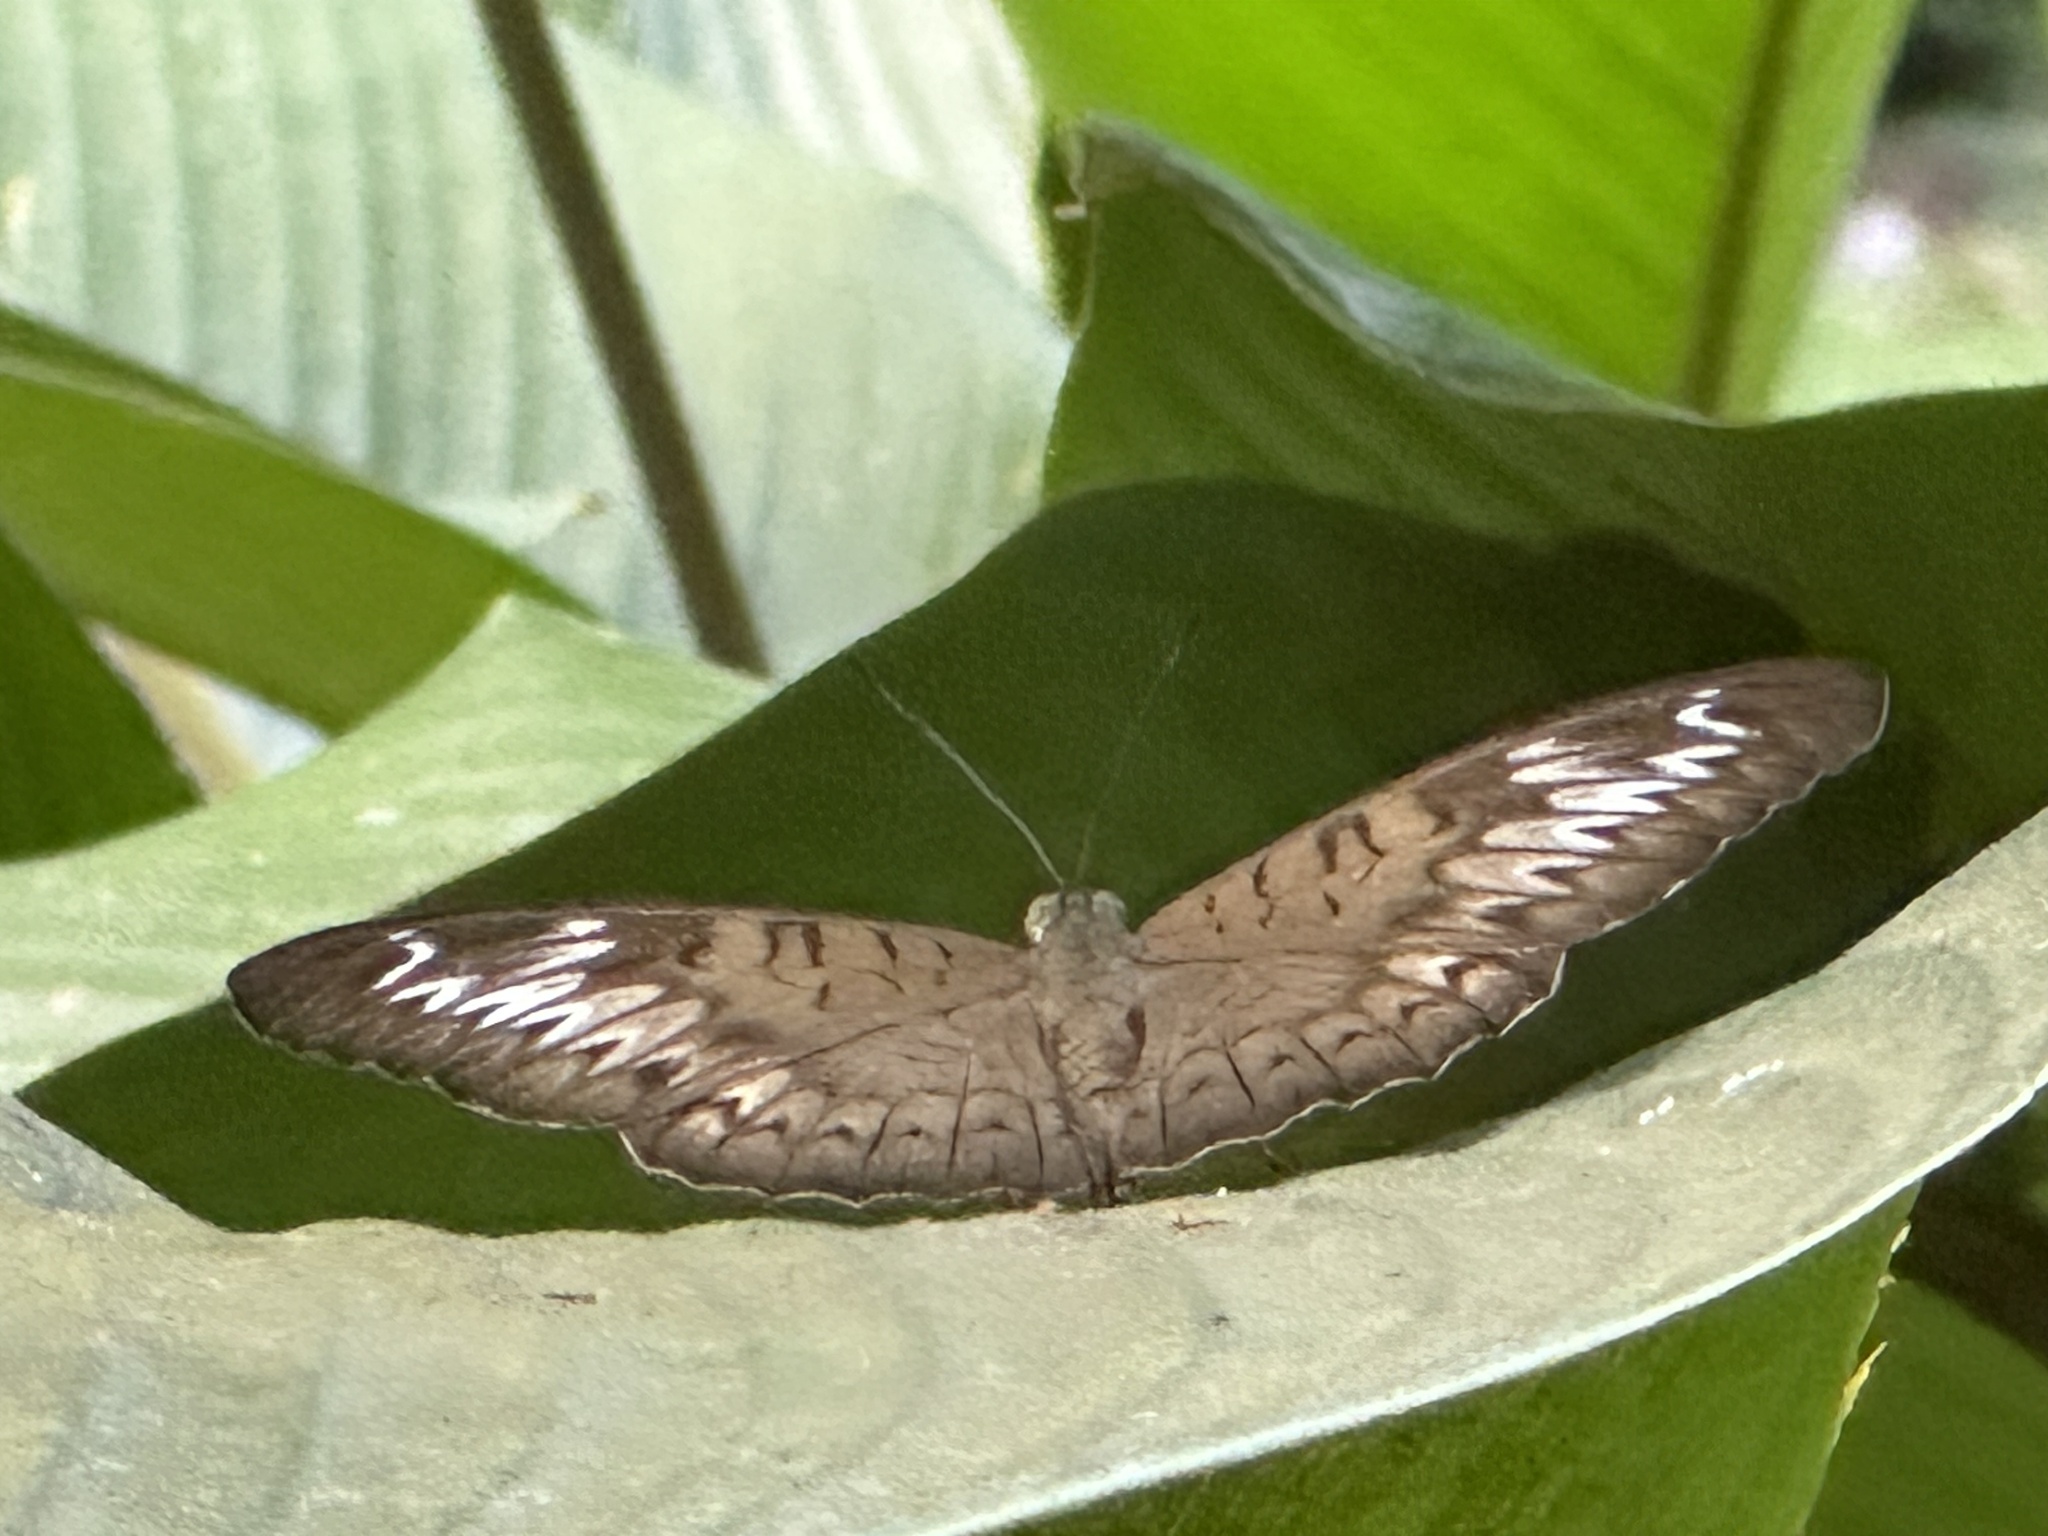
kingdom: Animalia
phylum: Arthropoda
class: Insecta
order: Lepidoptera
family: Nymphalidae
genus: Tanaecia
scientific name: Tanaecia pelea
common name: Malay viscount
